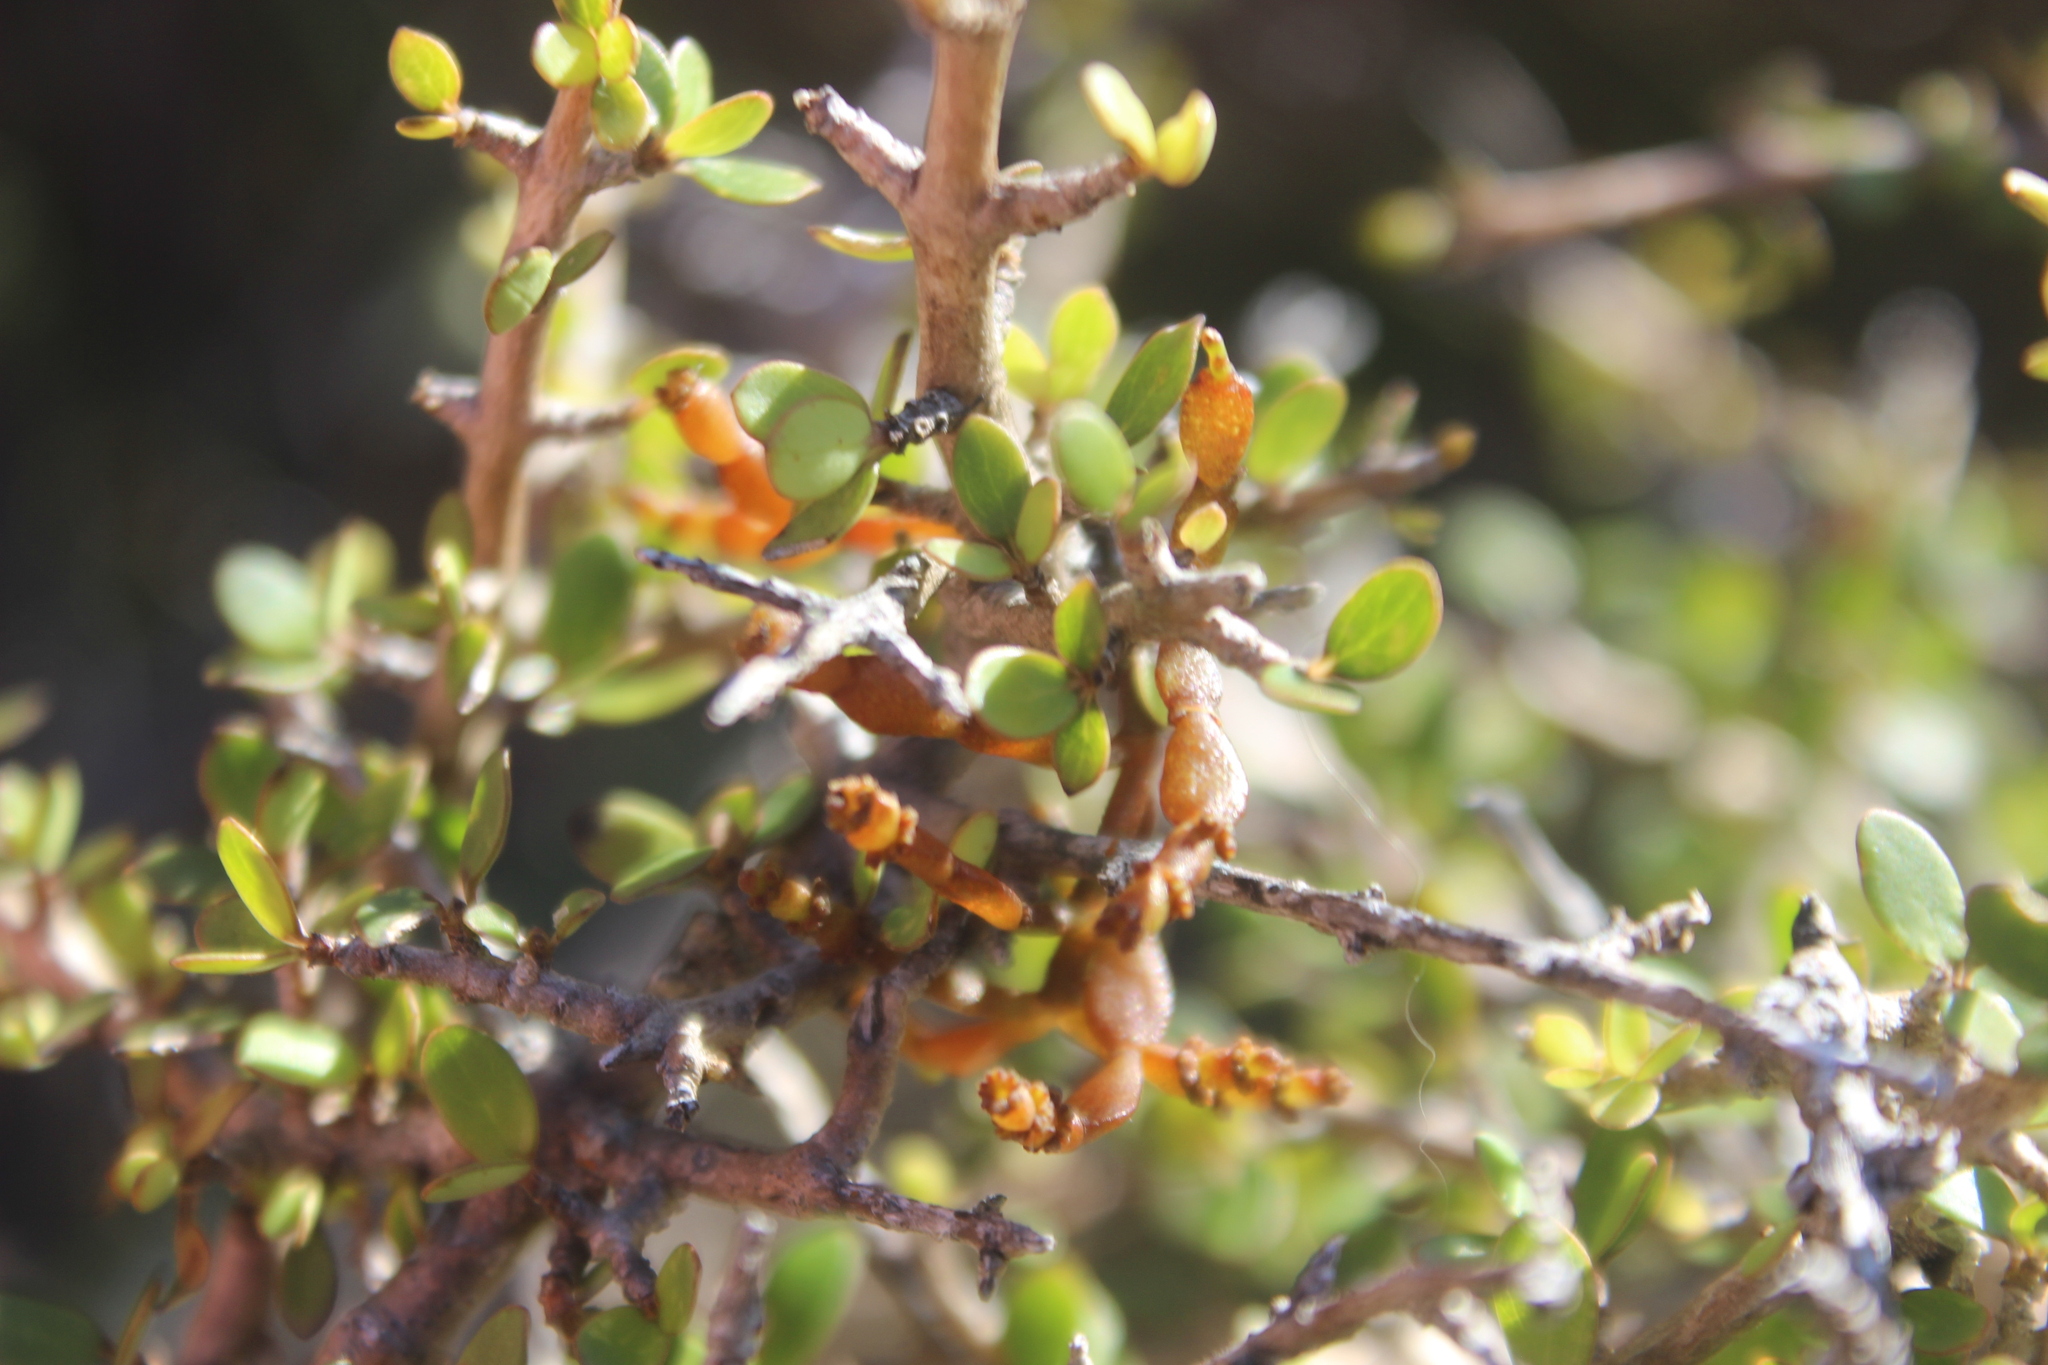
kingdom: Plantae
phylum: Tracheophyta
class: Magnoliopsida
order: Santalales
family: Viscaceae
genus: Korthalsella
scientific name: Korthalsella clavata
